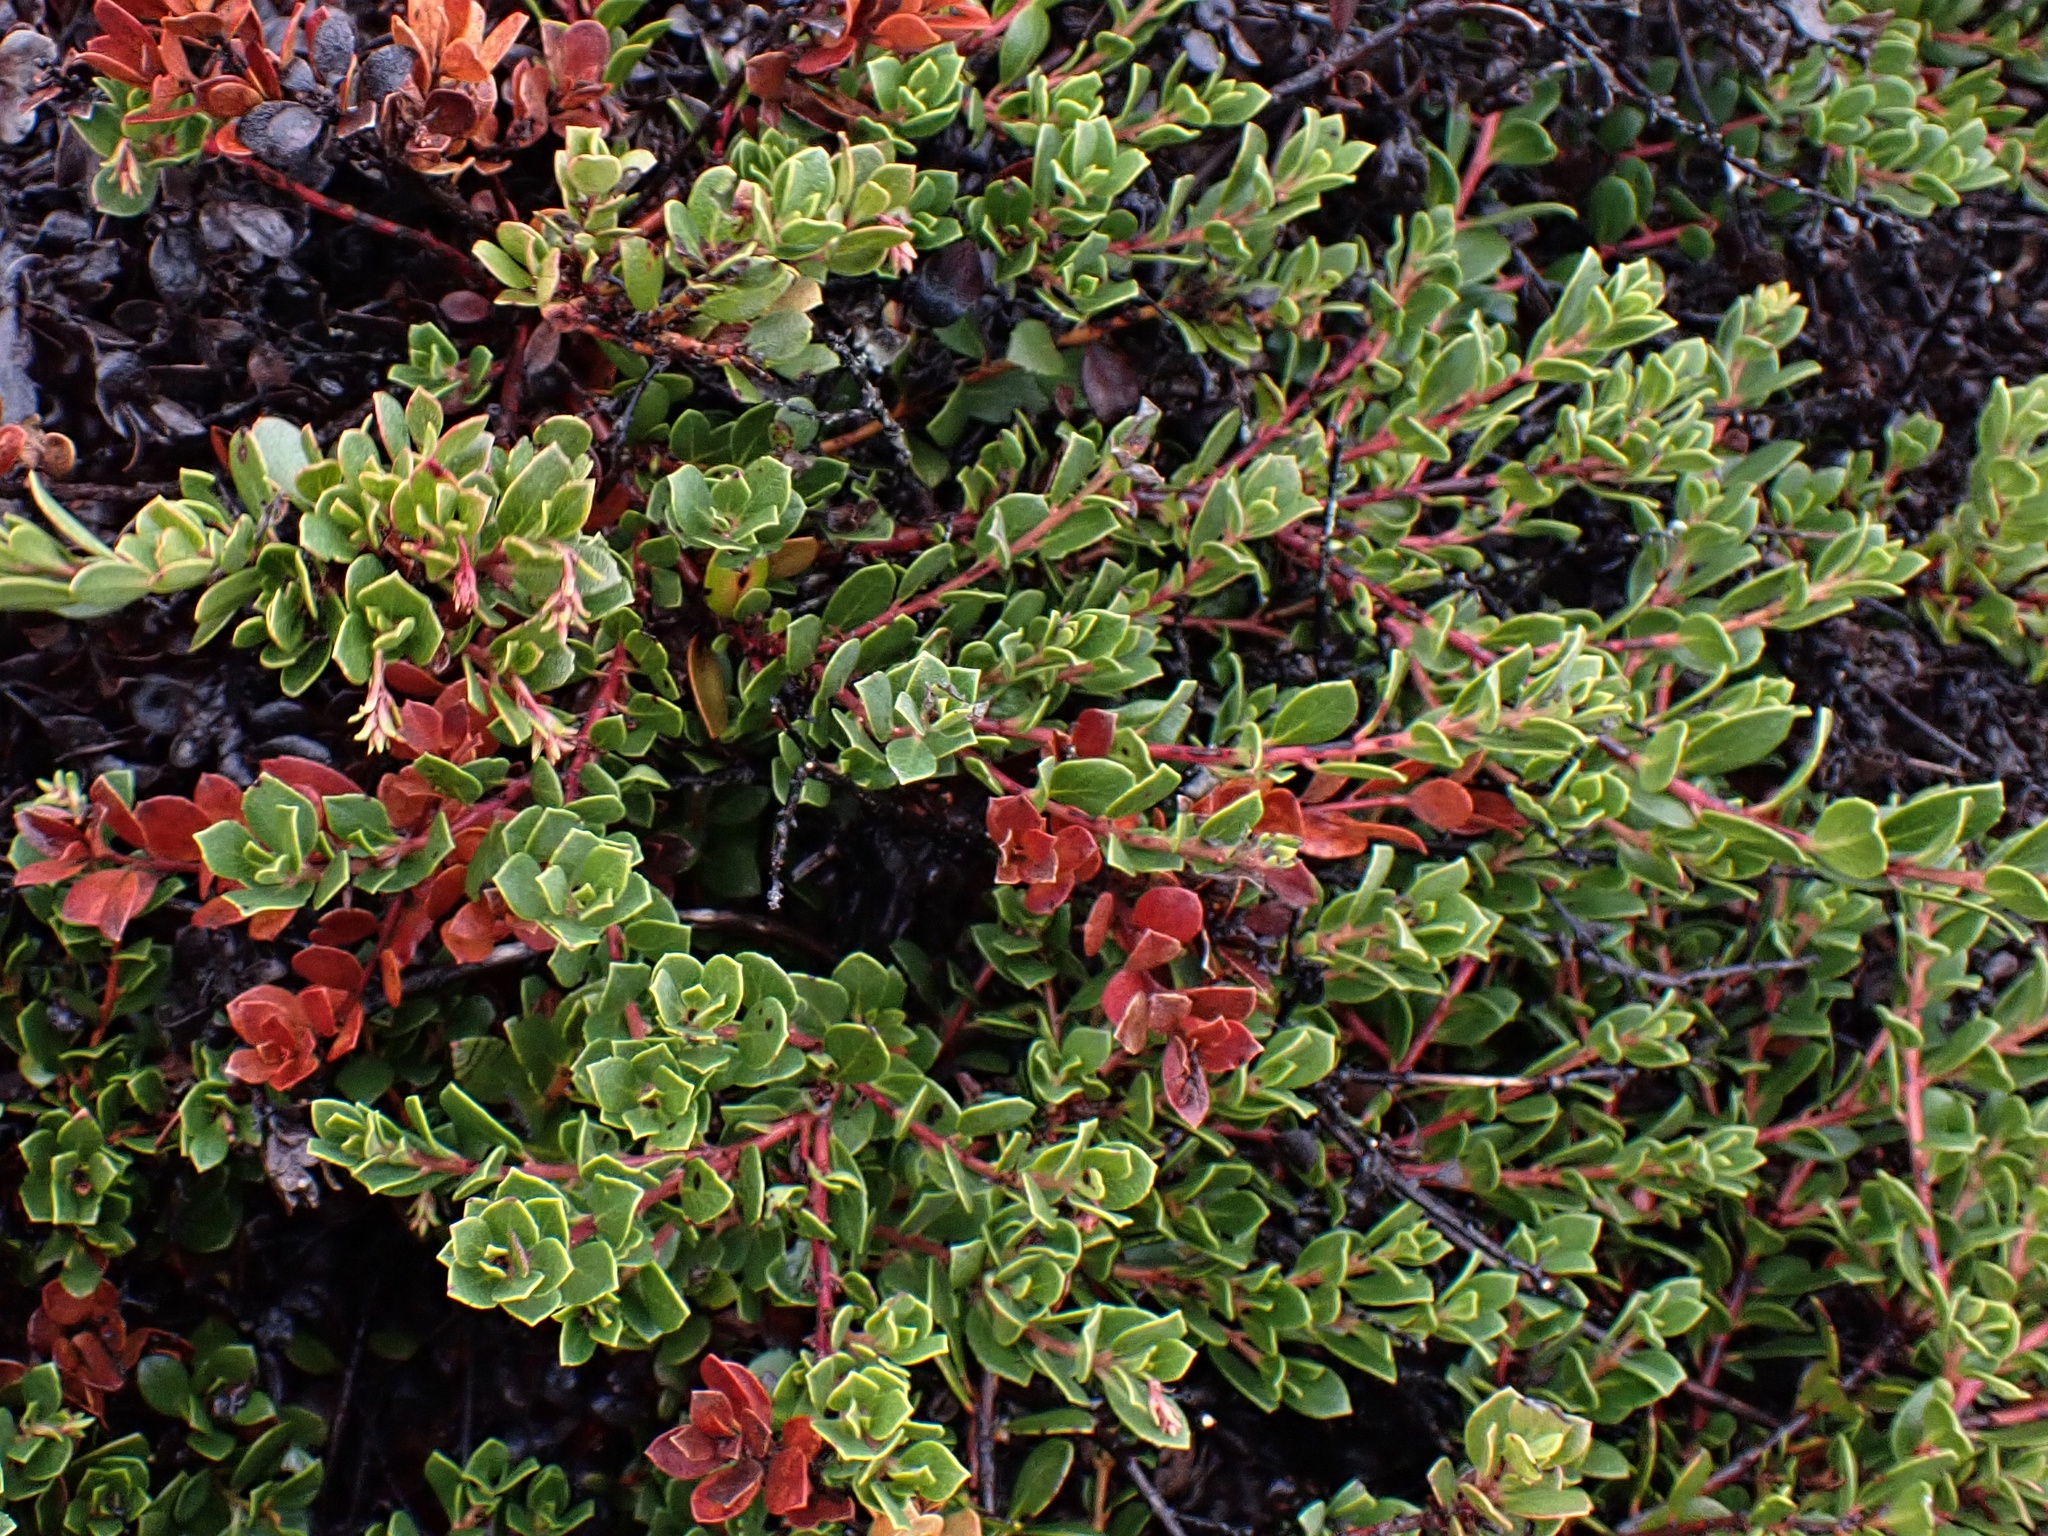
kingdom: Plantae
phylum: Tracheophyta
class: Magnoliopsida
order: Ericales
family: Ericaceae
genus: Arctostaphylos
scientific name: Arctostaphylos uva-ursi
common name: Bearberry
